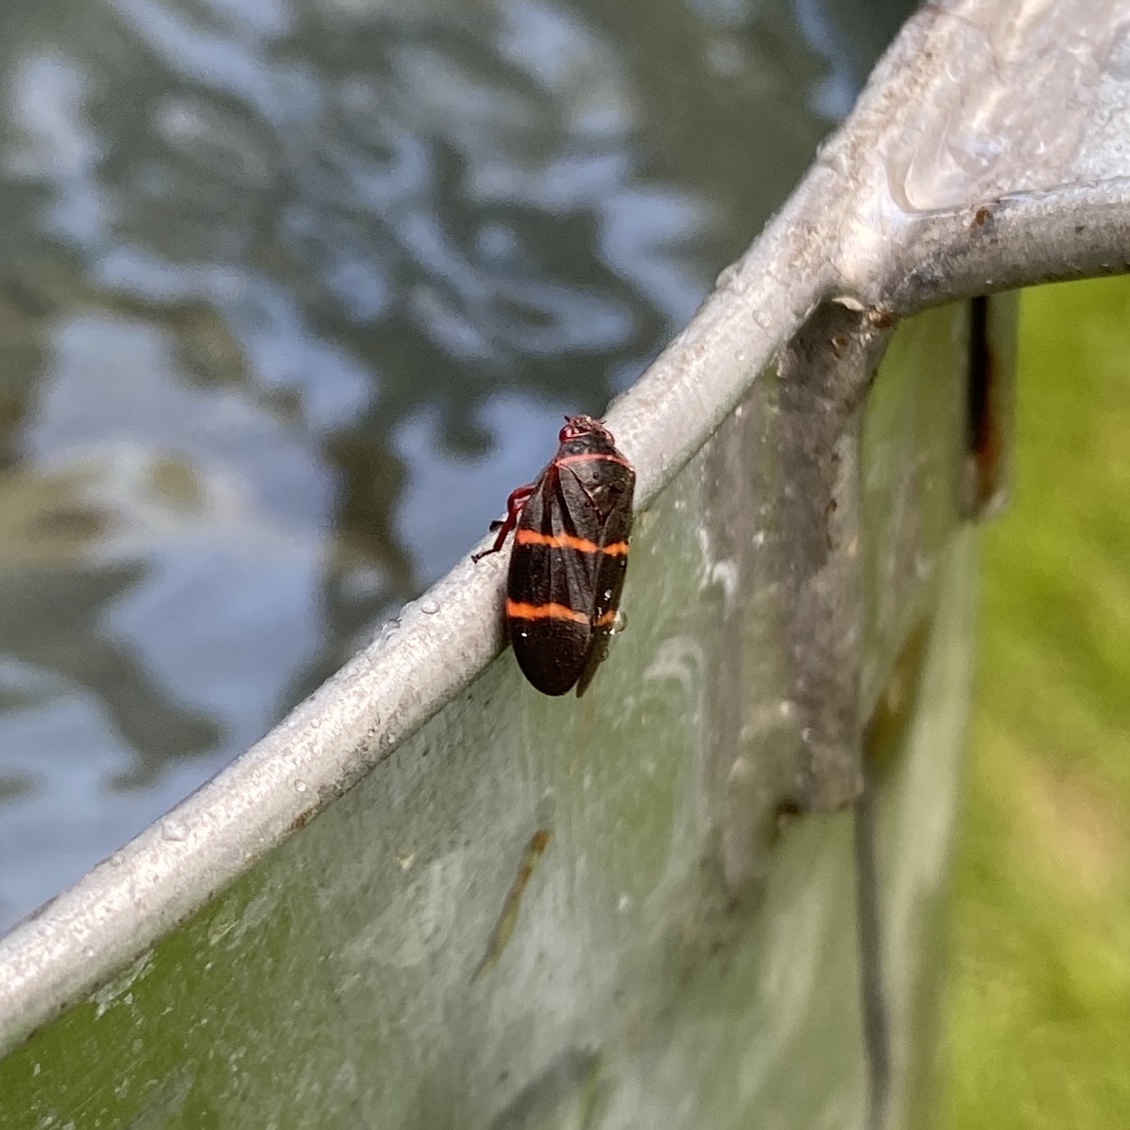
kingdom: Animalia
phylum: Arthropoda
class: Insecta
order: Hemiptera
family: Cercopidae
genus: Prosapia
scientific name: Prosapia bicincta
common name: Twolined spittlebug
